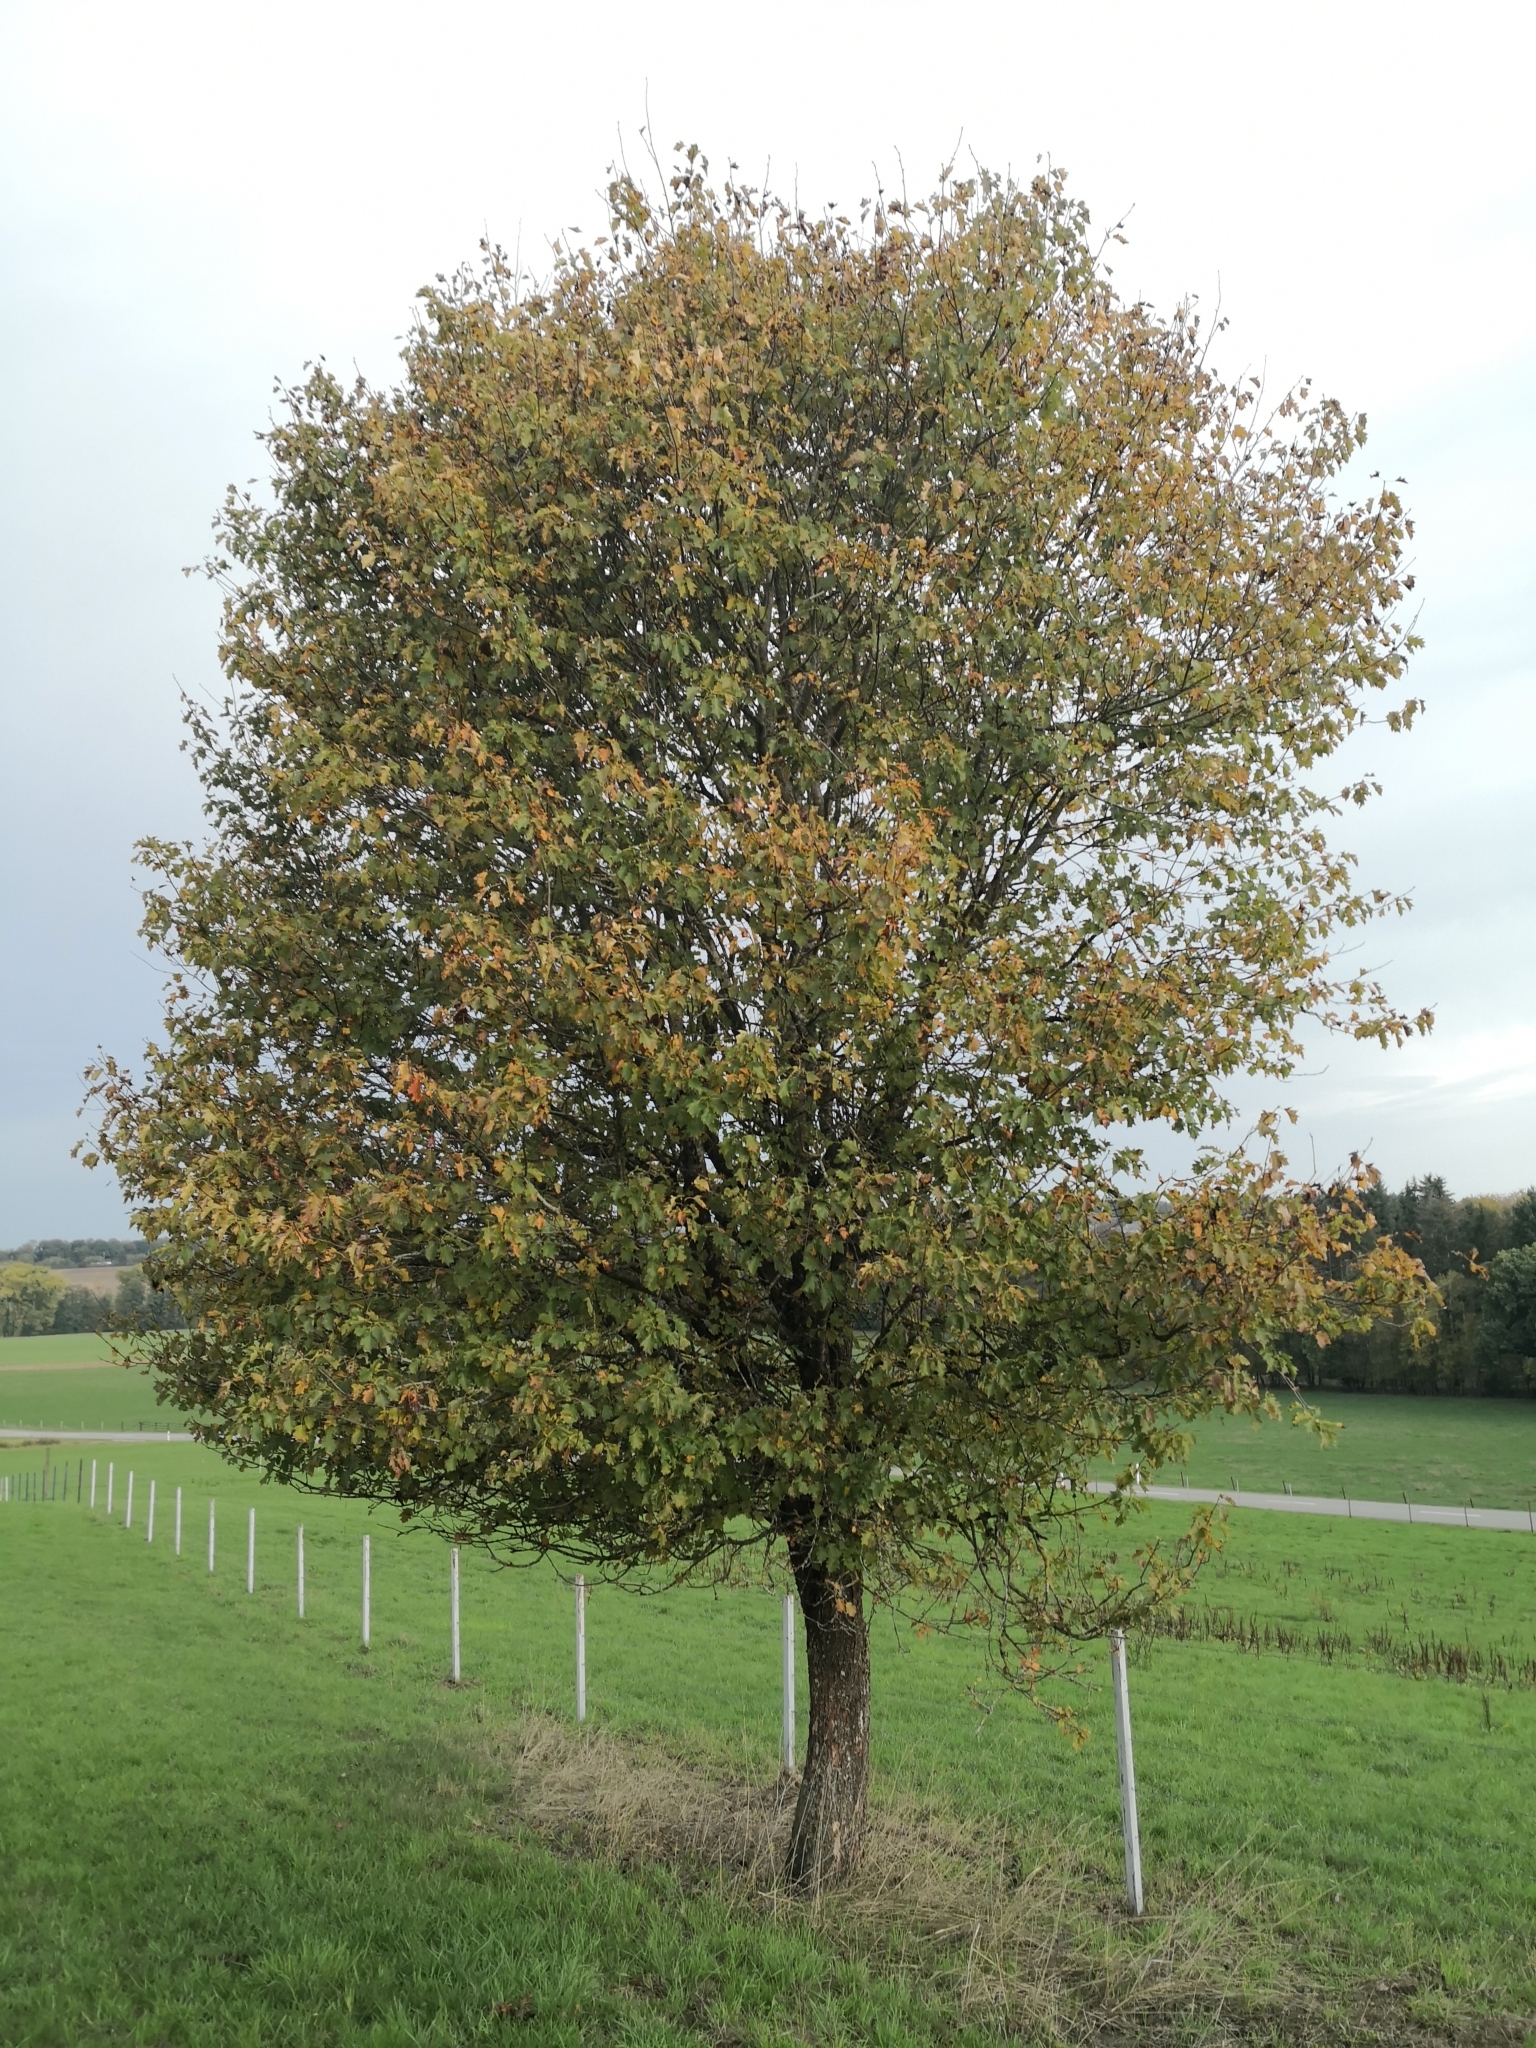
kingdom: Plantae
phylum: Tracheophyta
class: Magnoliopsida
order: Rosales
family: Rosaceae
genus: Torminalis
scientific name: Torminalis glaberrima
